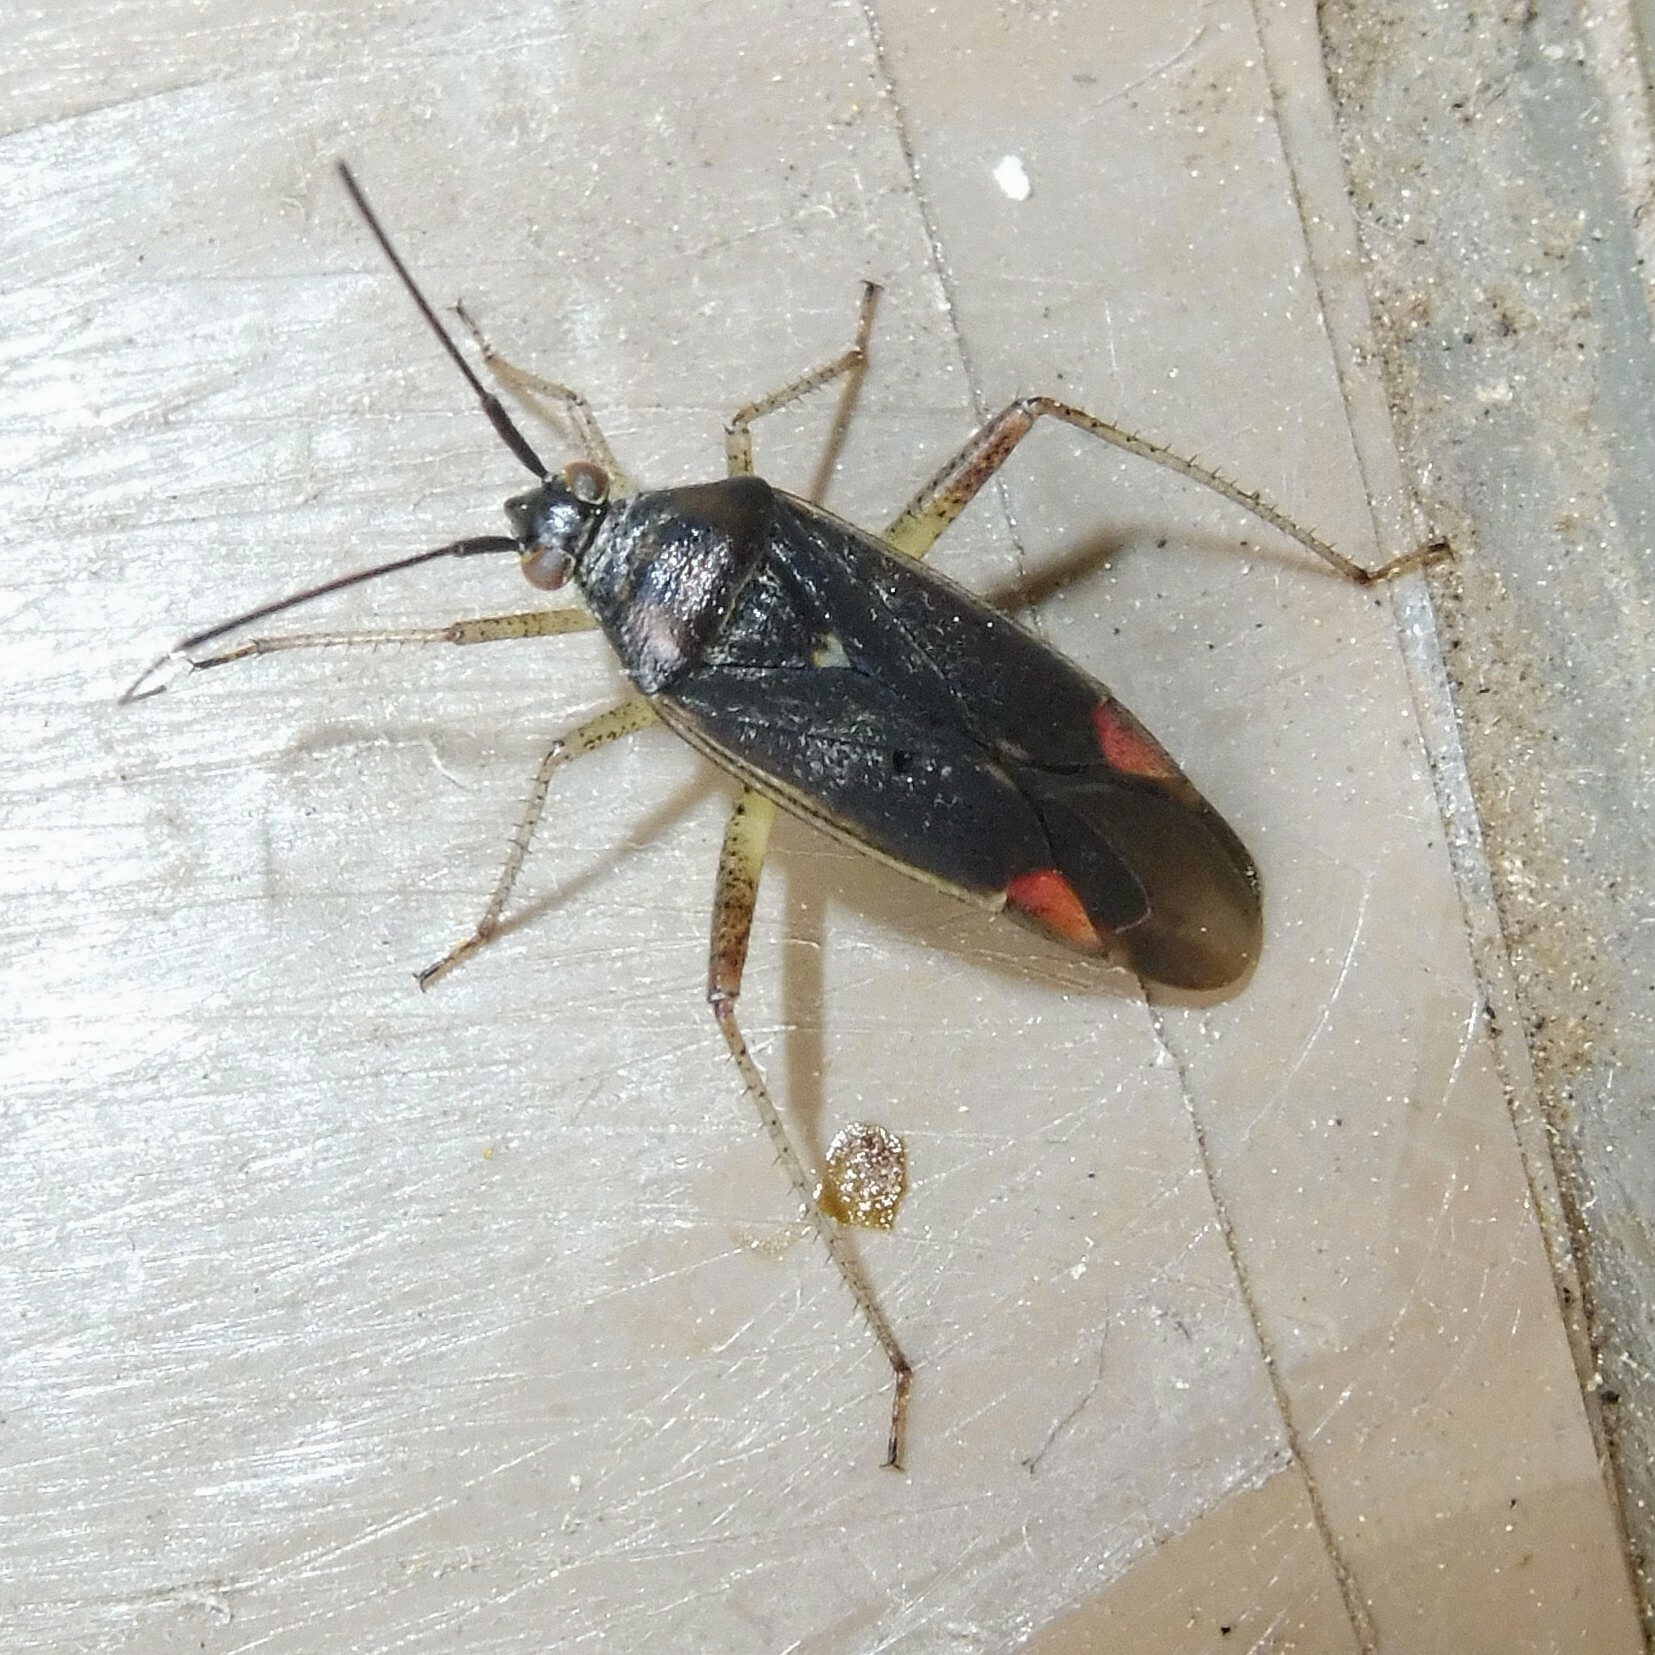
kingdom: Animalia
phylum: Arthropoda
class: Insecta
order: Hemiptera
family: Miridae
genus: Closterotomus
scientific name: Closterotomus trivialis
